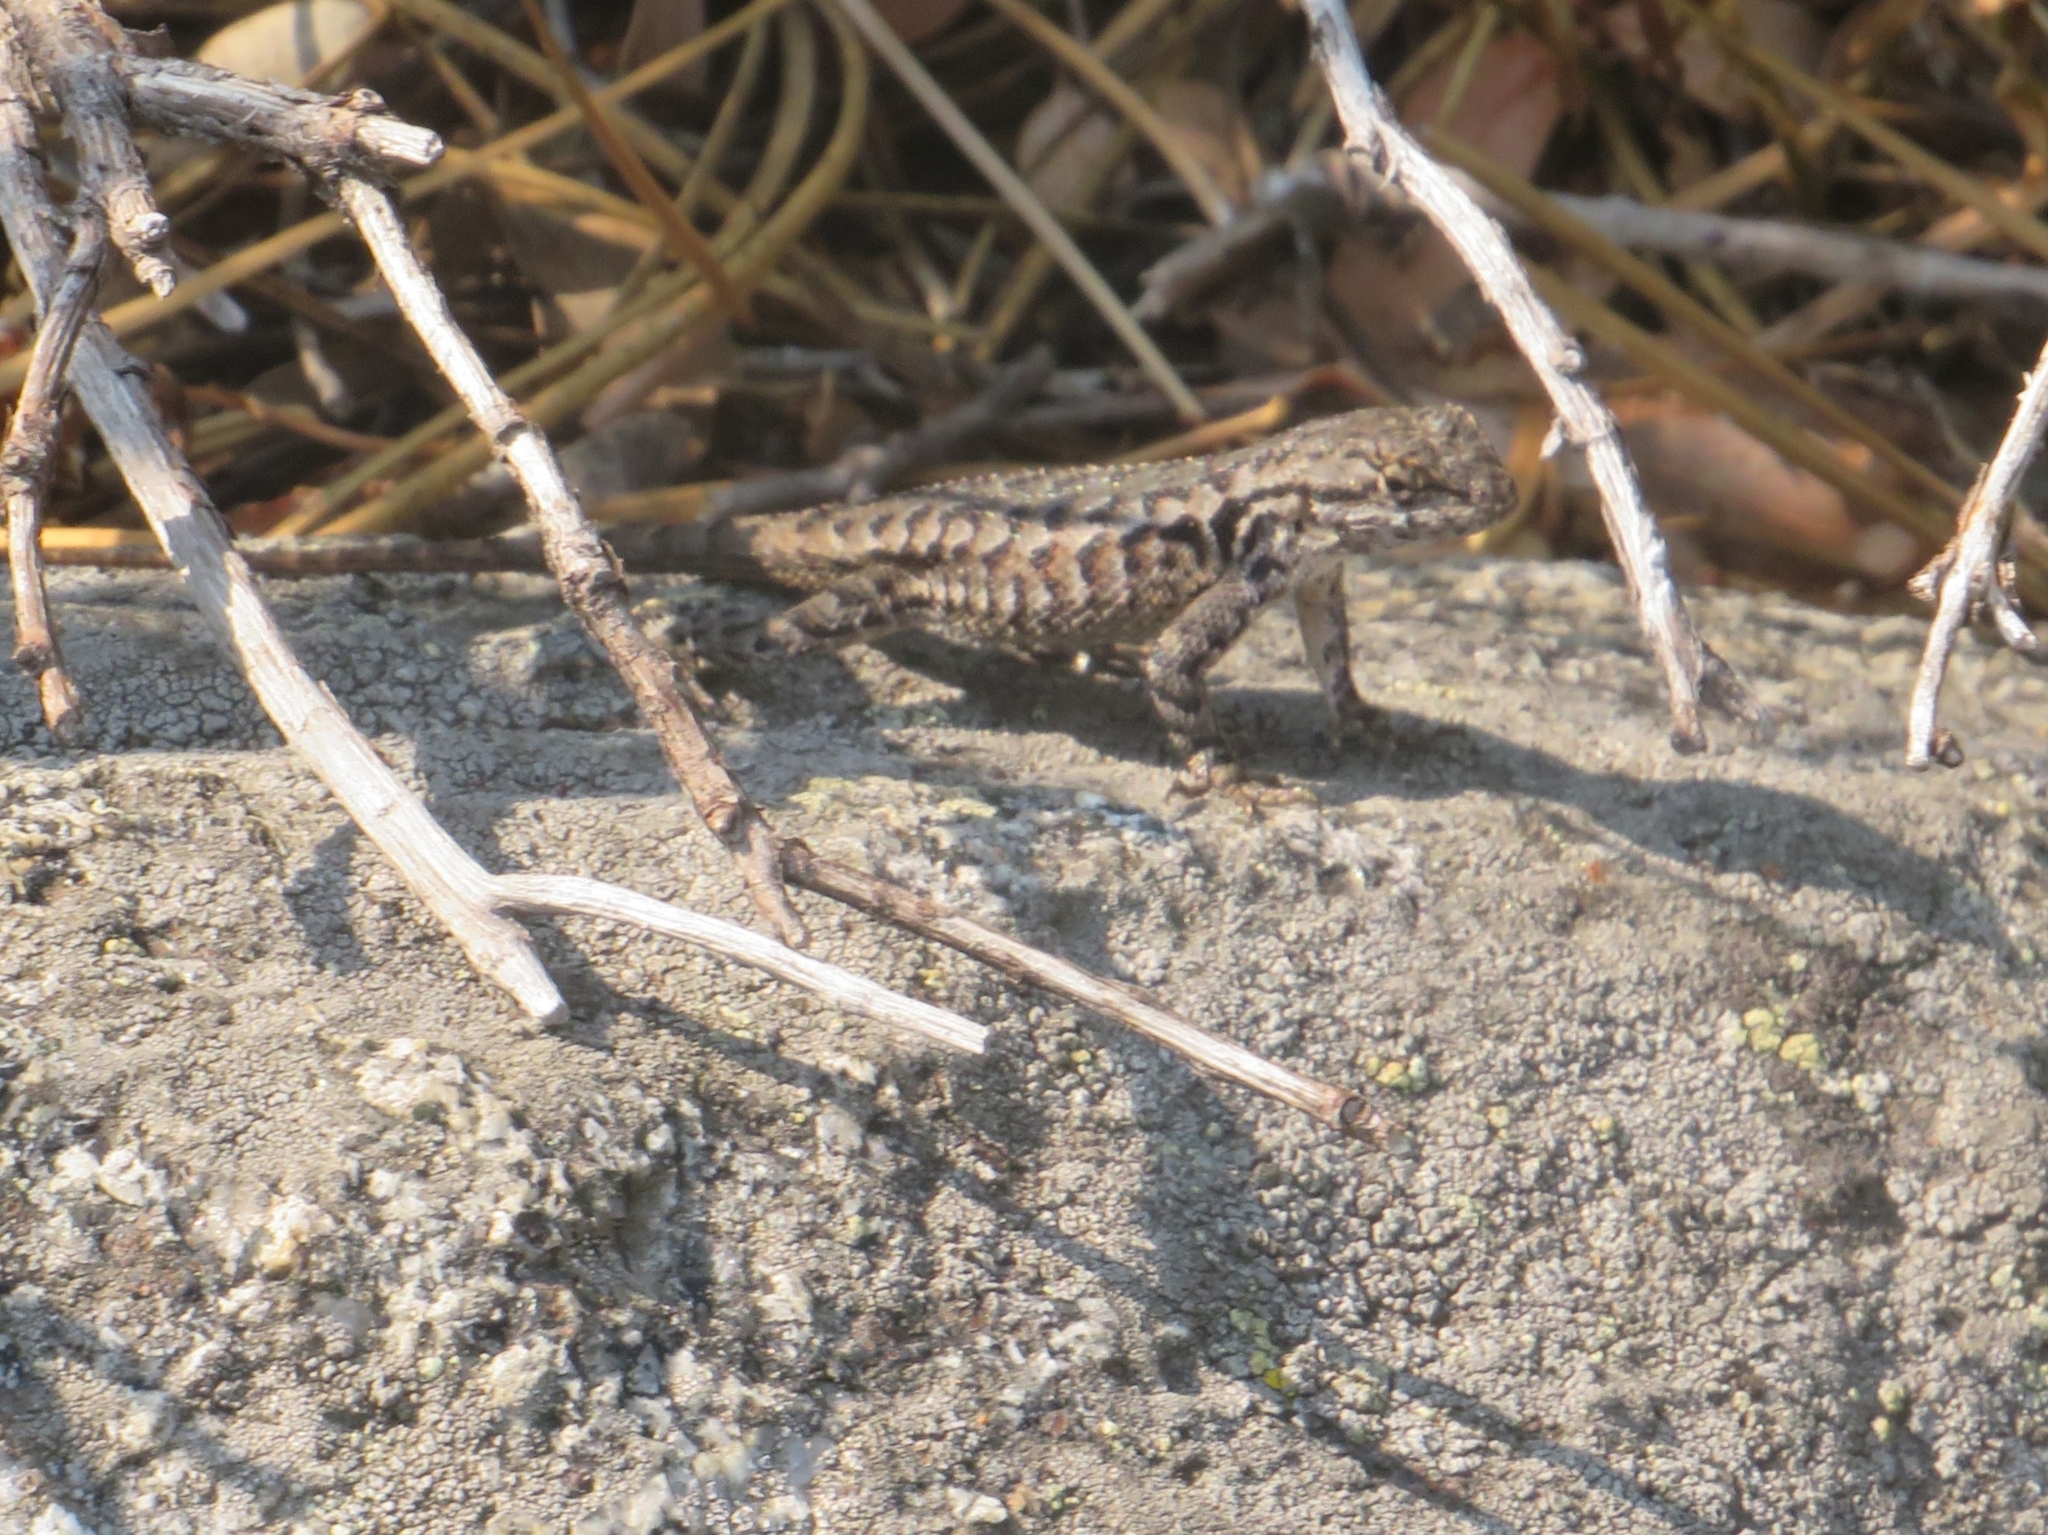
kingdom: Animalia
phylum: Chordata
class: Squamata
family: Phrynosomatidae
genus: Sceloporus
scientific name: Sceloporus occidentalis
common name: Western fence lizard
